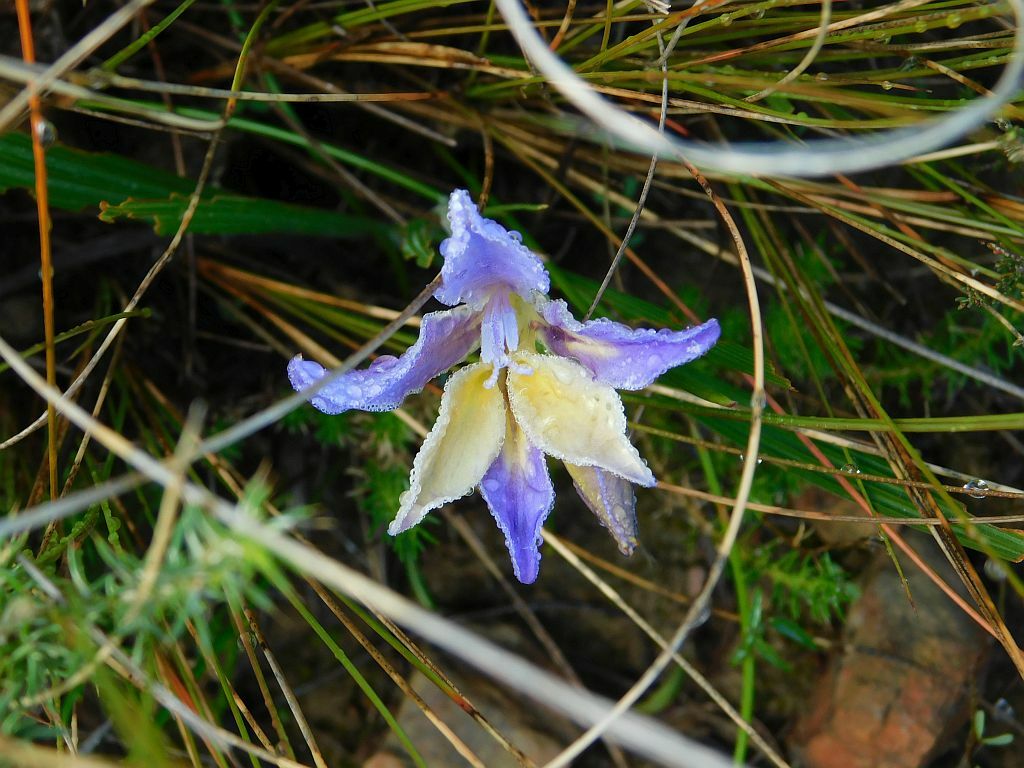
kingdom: Plantae
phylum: Tracheophyta
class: Liliopsida
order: Asparagales
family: Iridaceae
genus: Babiana
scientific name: Babiana patula
